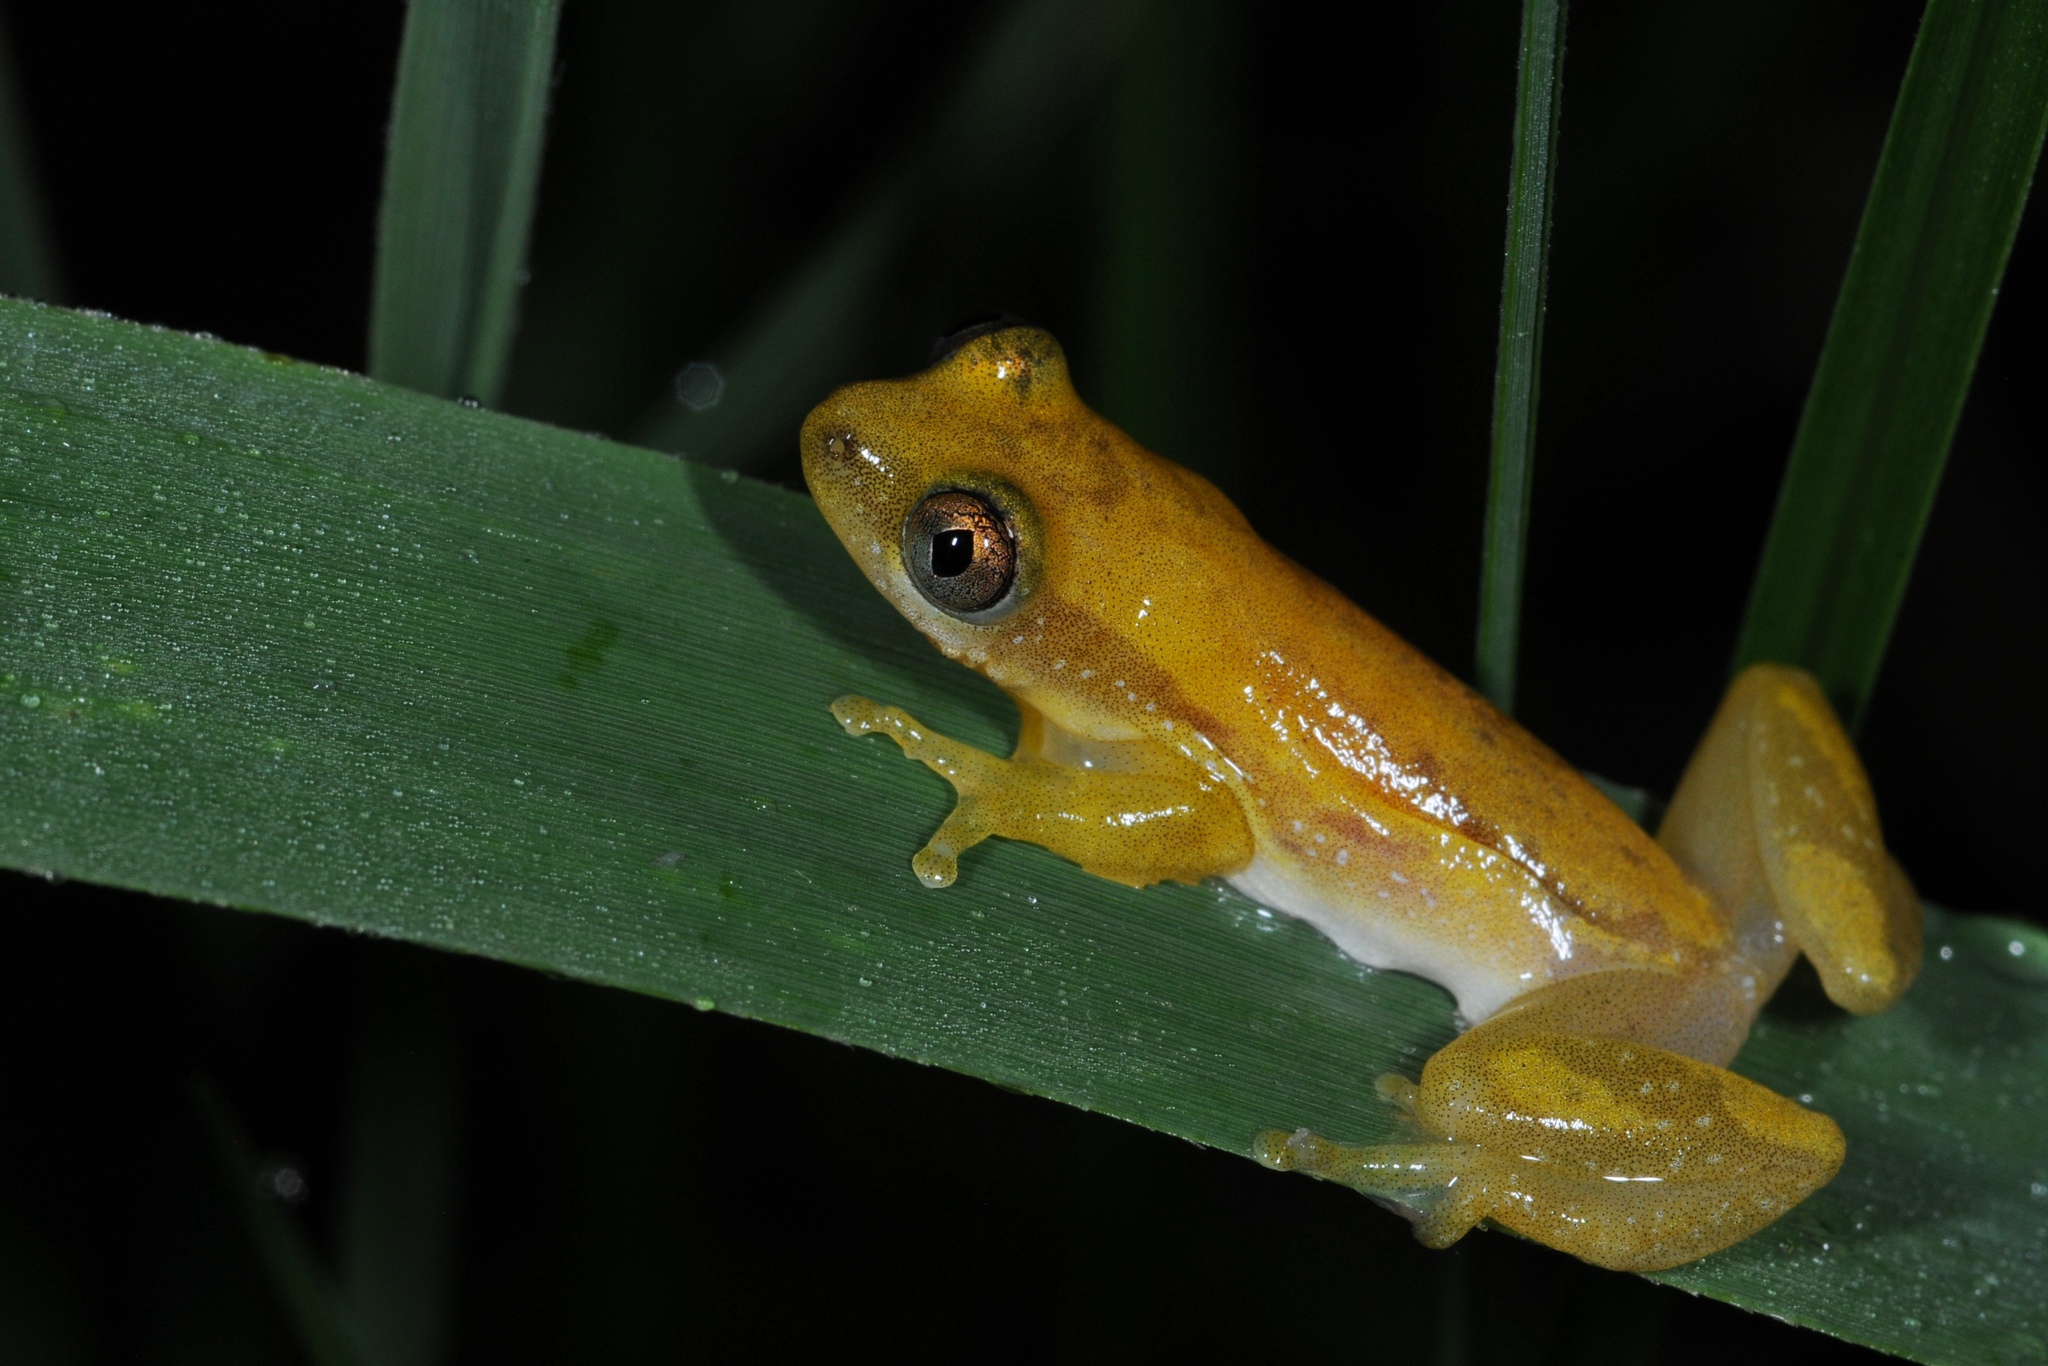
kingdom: Animalia
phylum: Chordata
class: Amphibia
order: Anura
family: Hyperoliidae
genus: Afrixalus
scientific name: Afrixalus delicatus
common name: Delicate leaf-folding frog
